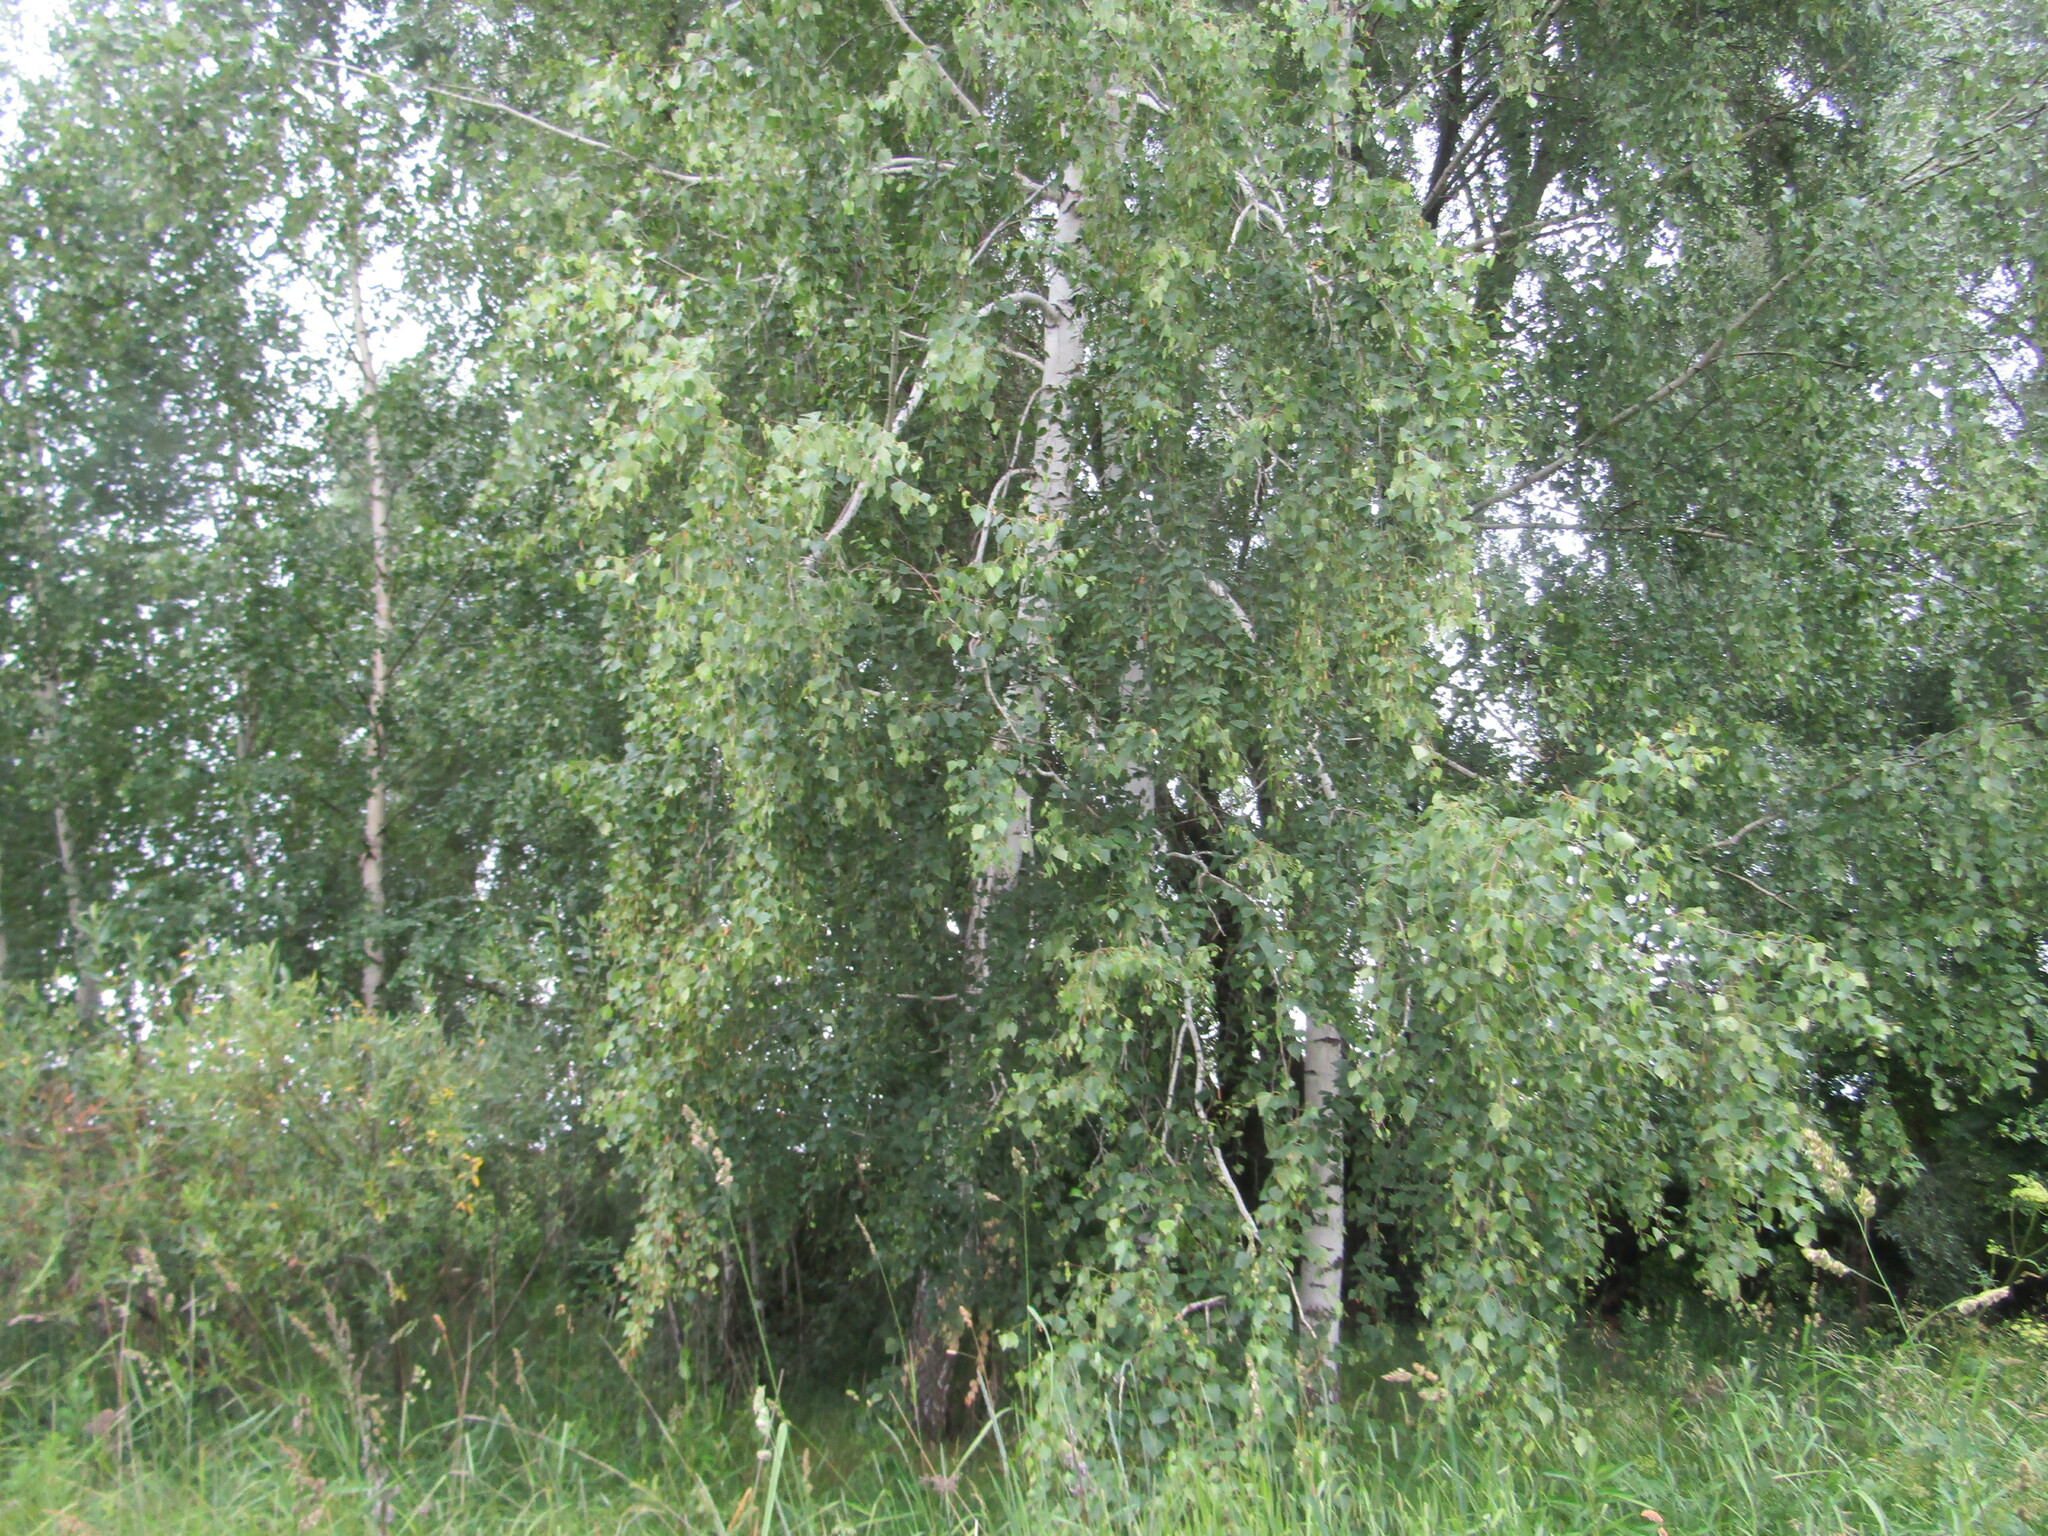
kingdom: Plantae
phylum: Tracheophyta
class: Magnoliopsida
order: Fagales
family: Betulaceae
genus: Betula
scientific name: Betula pendula
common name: Silver birch
